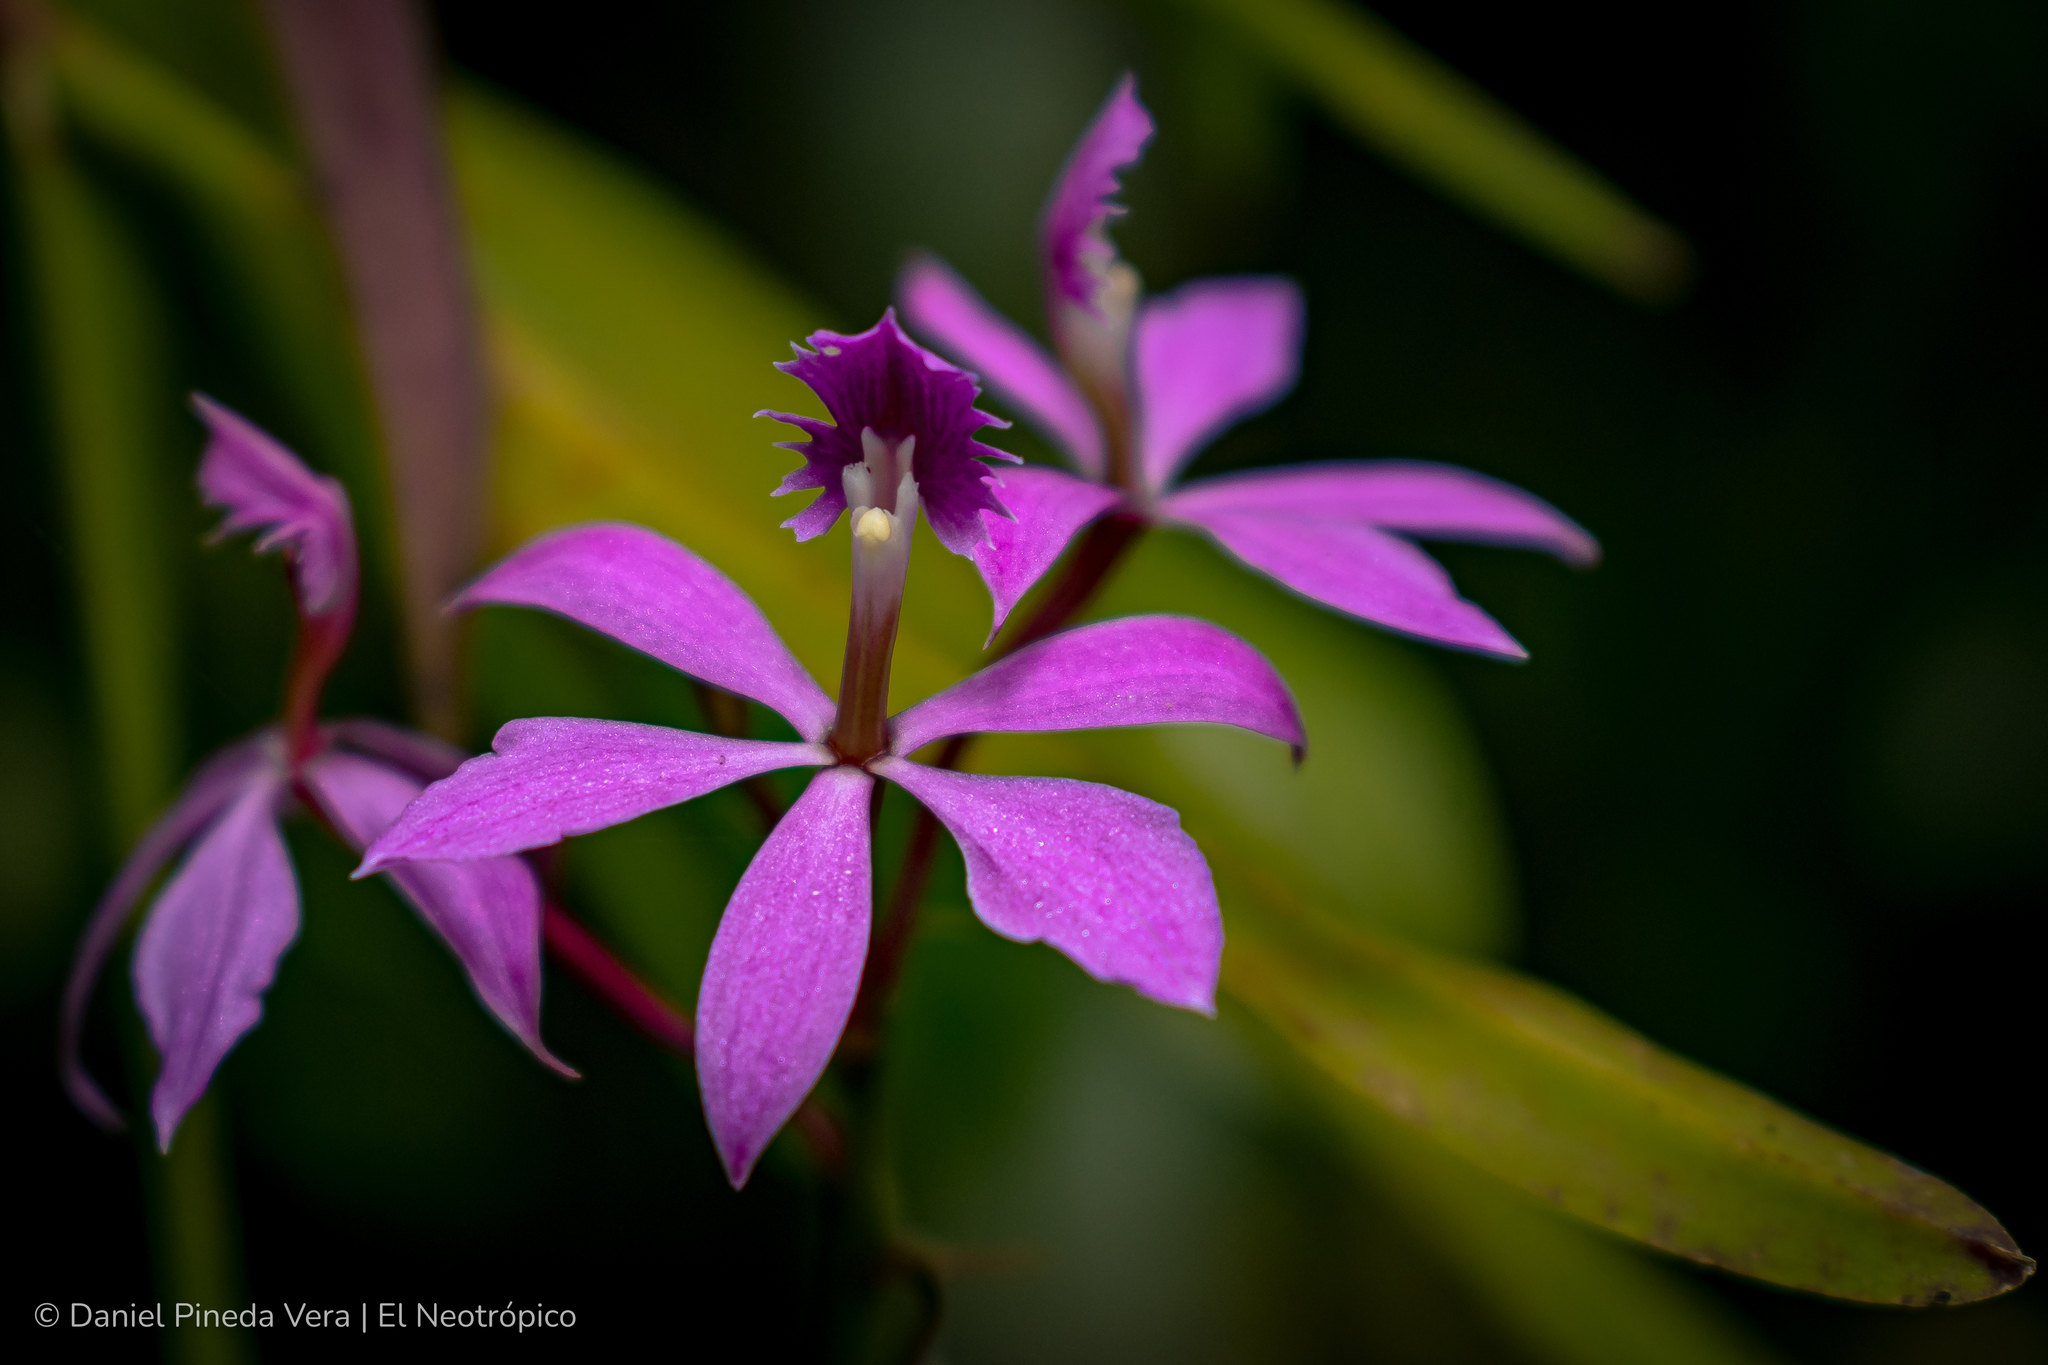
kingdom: Plantae
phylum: Tracheophyta
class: Liliopsida
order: Asparagales
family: Orchidaceae
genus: Epidendrum
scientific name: Epidendrum flexuosum
